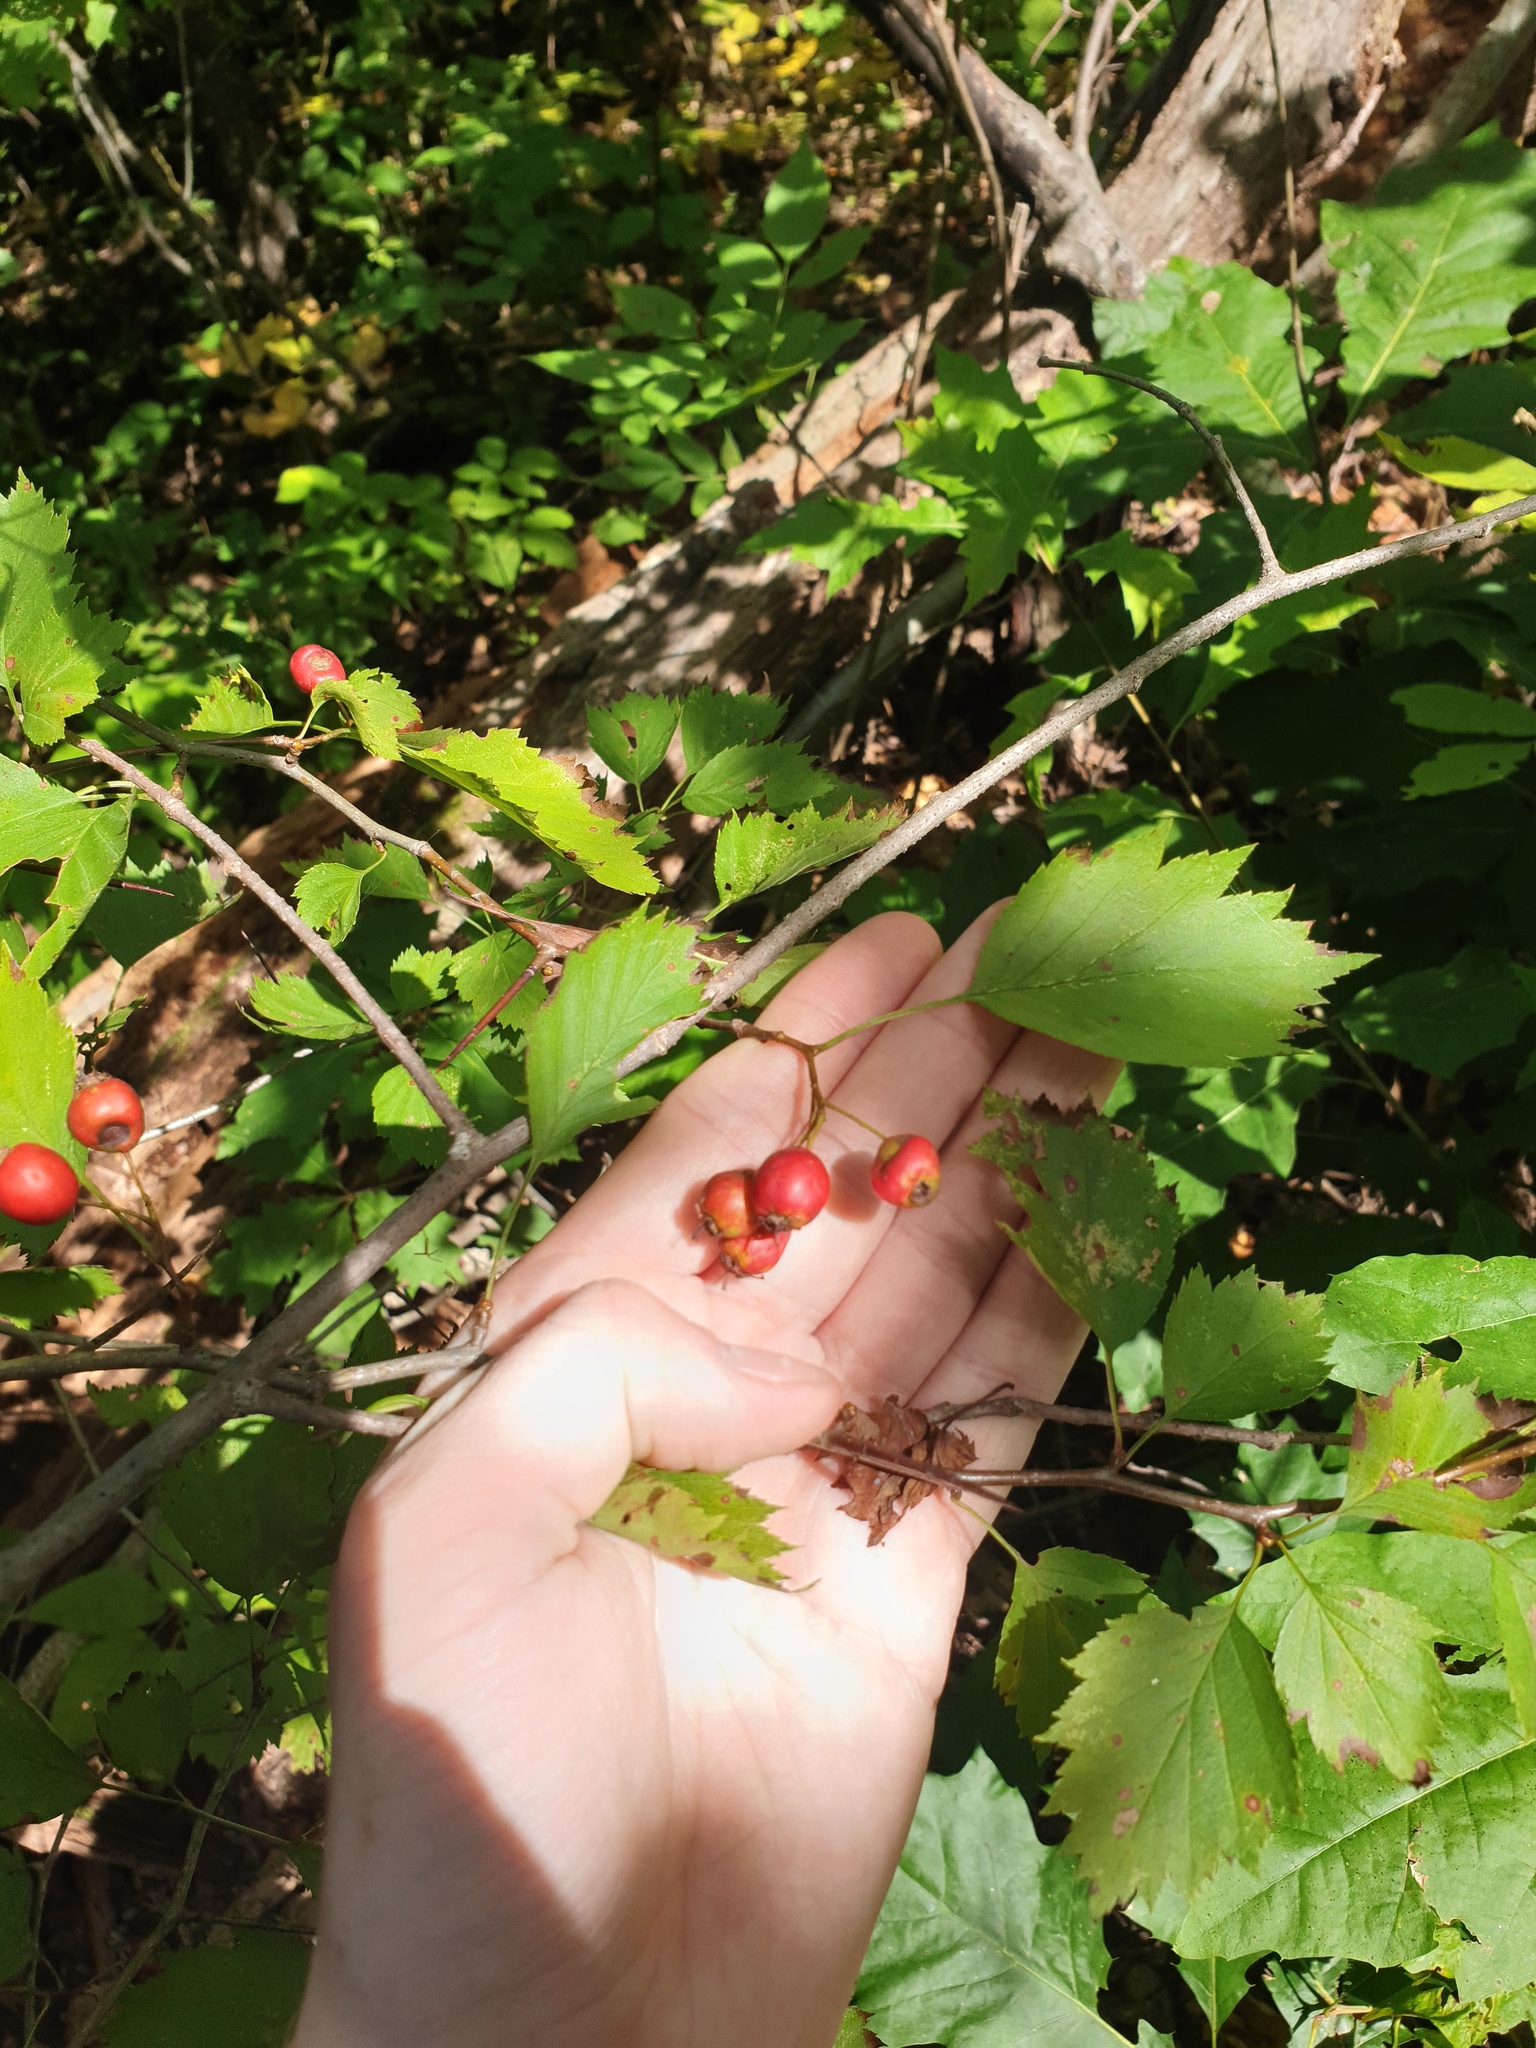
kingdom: Plantae
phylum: Tracheophyta
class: Magnoliopsida
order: Rosales
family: Rosaceae
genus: Crataegus
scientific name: Crataegus flabellata
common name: Bosc's hawthorn
